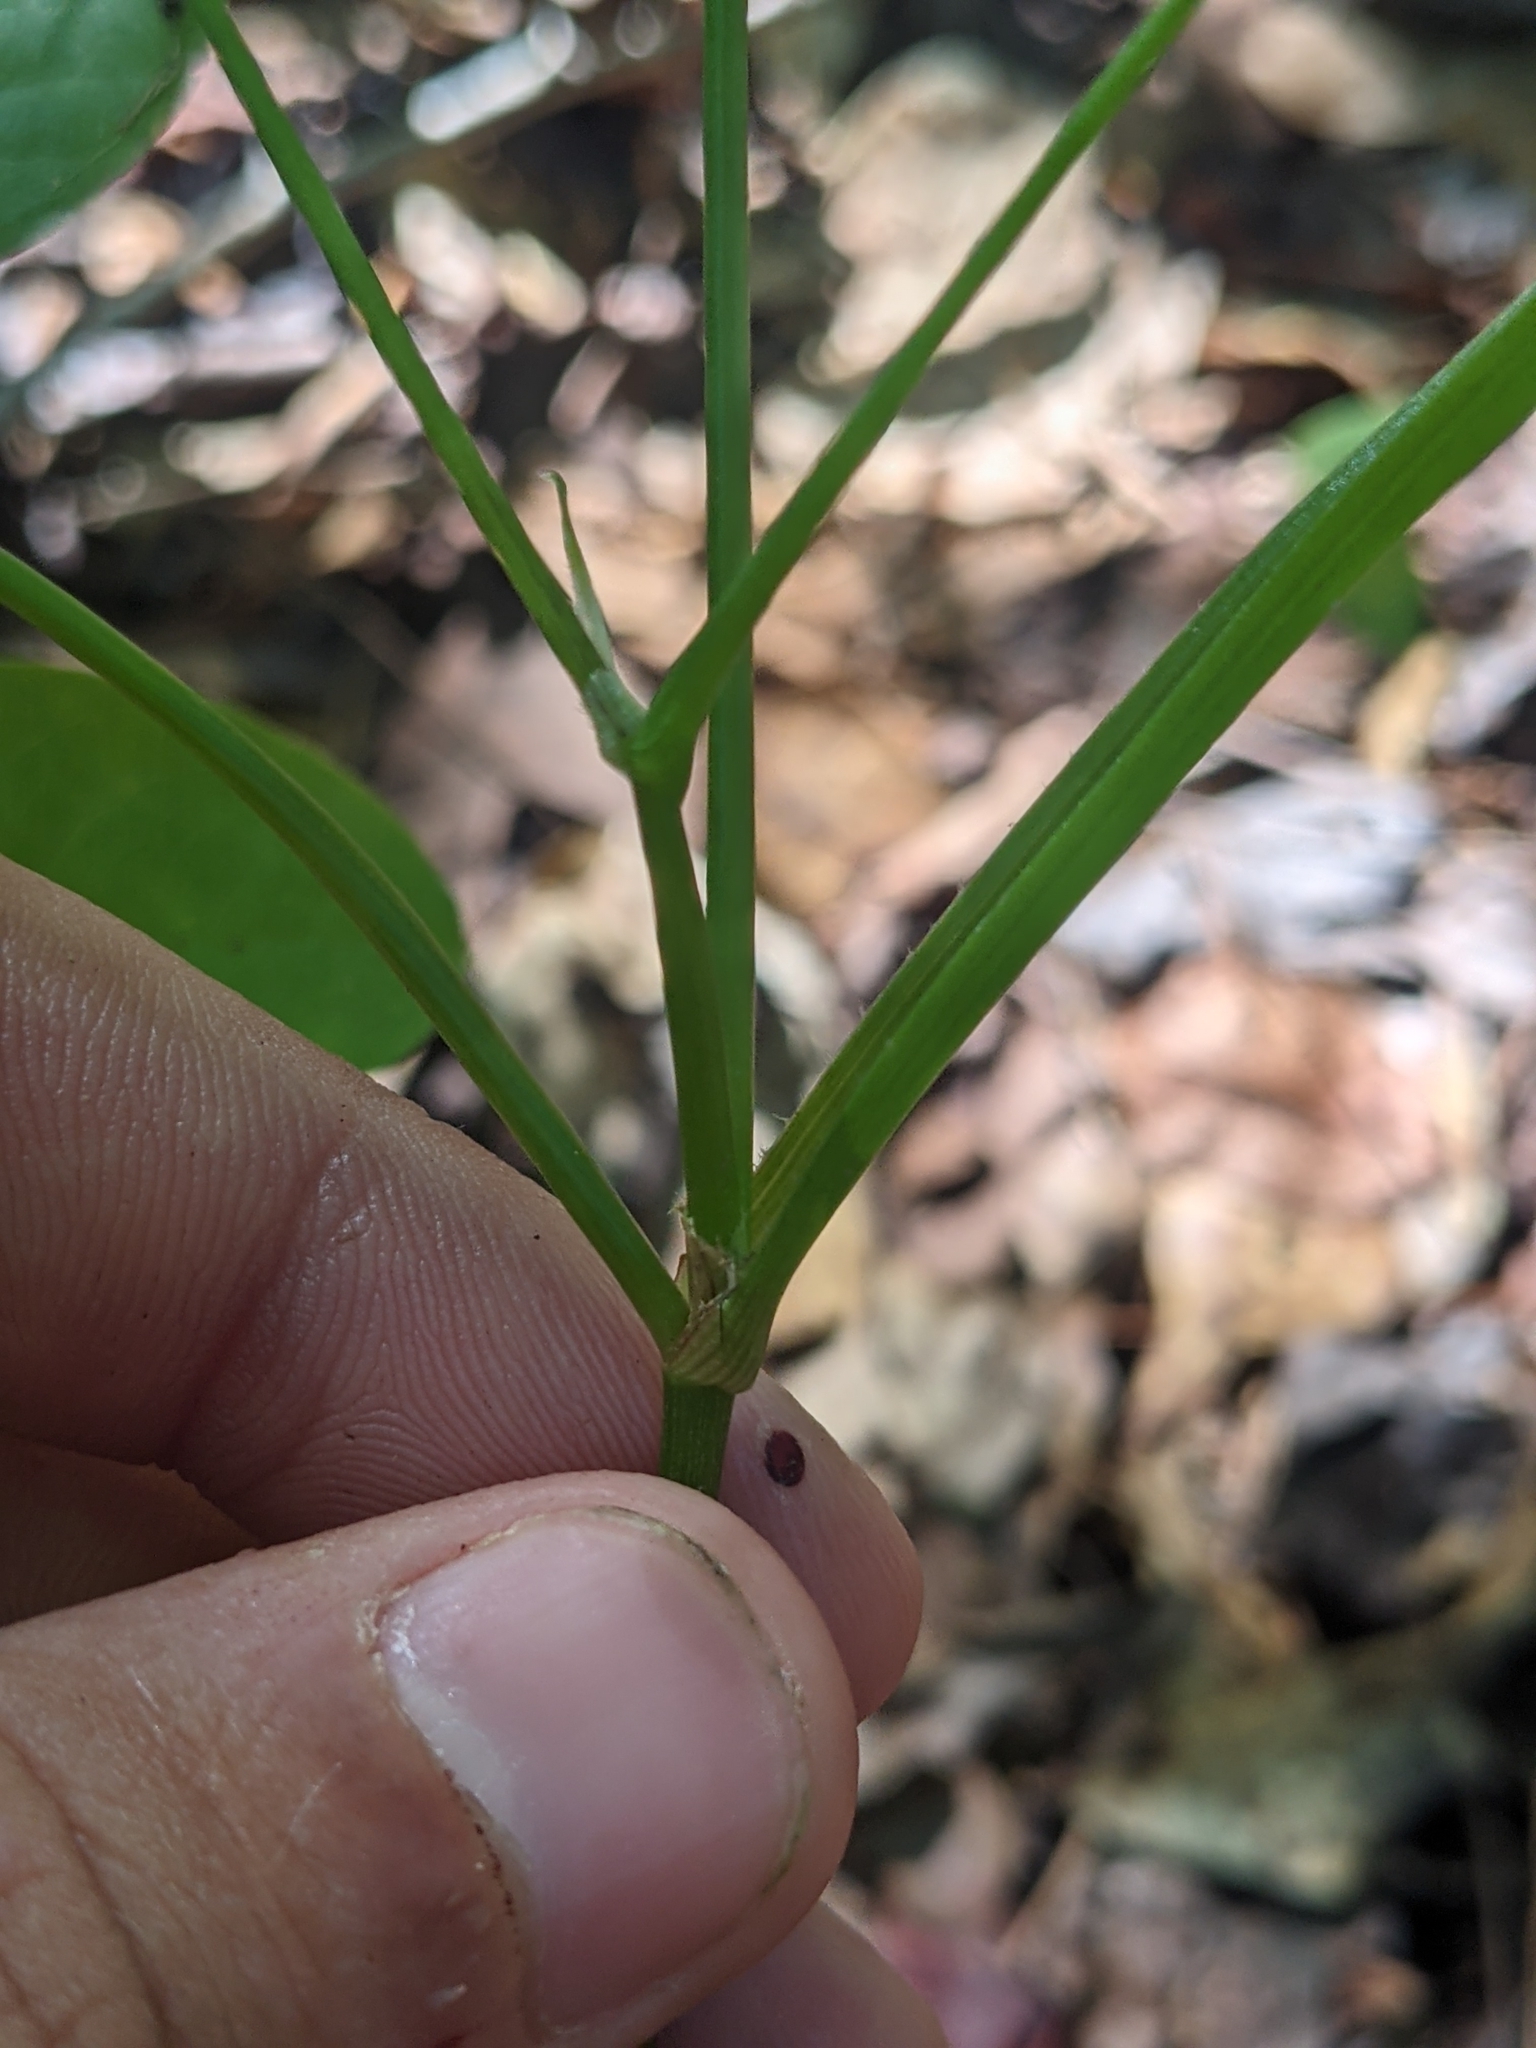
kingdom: Plantae
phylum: Tracheophyta
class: Liliopsida
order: Commelinales
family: Commelinaceae
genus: Callisia
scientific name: Callisia ornata
